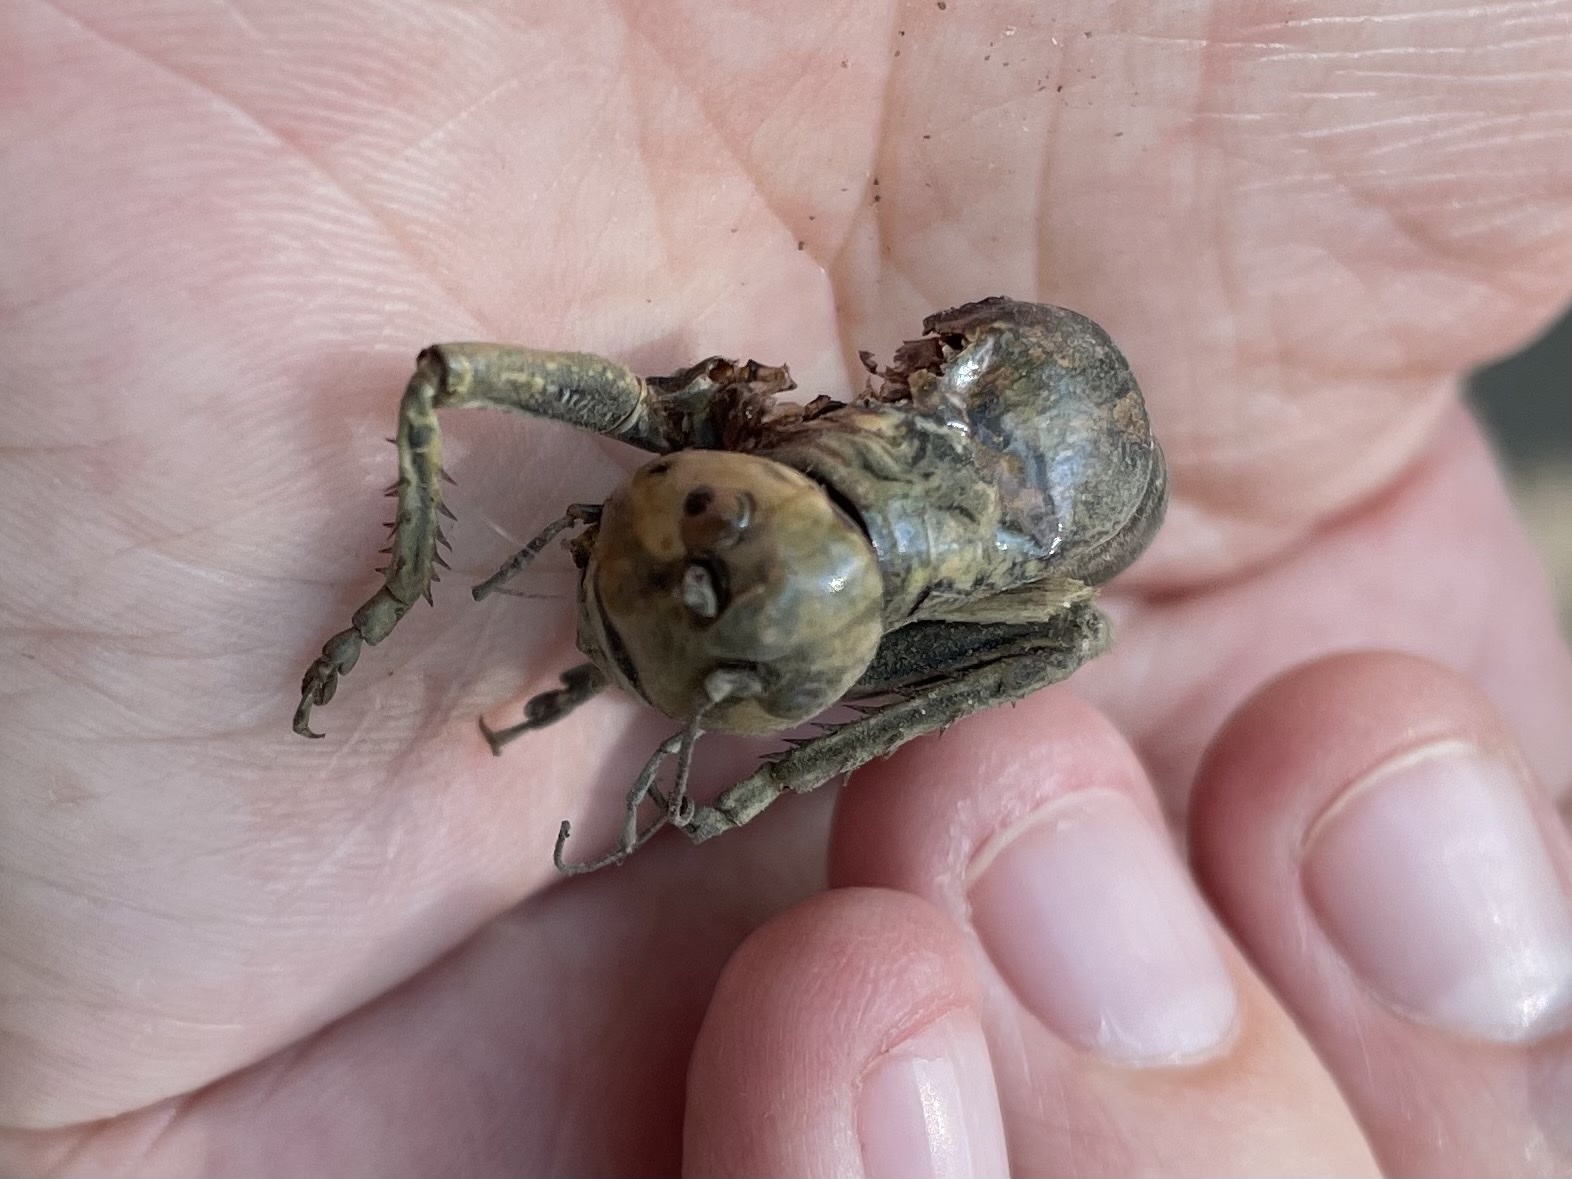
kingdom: Animalia
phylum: Arthropoda
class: Insecta
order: Orthoptera
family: Tettigoniidae
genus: Anabrus
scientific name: Anabrus simplex
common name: Mormon cricket
